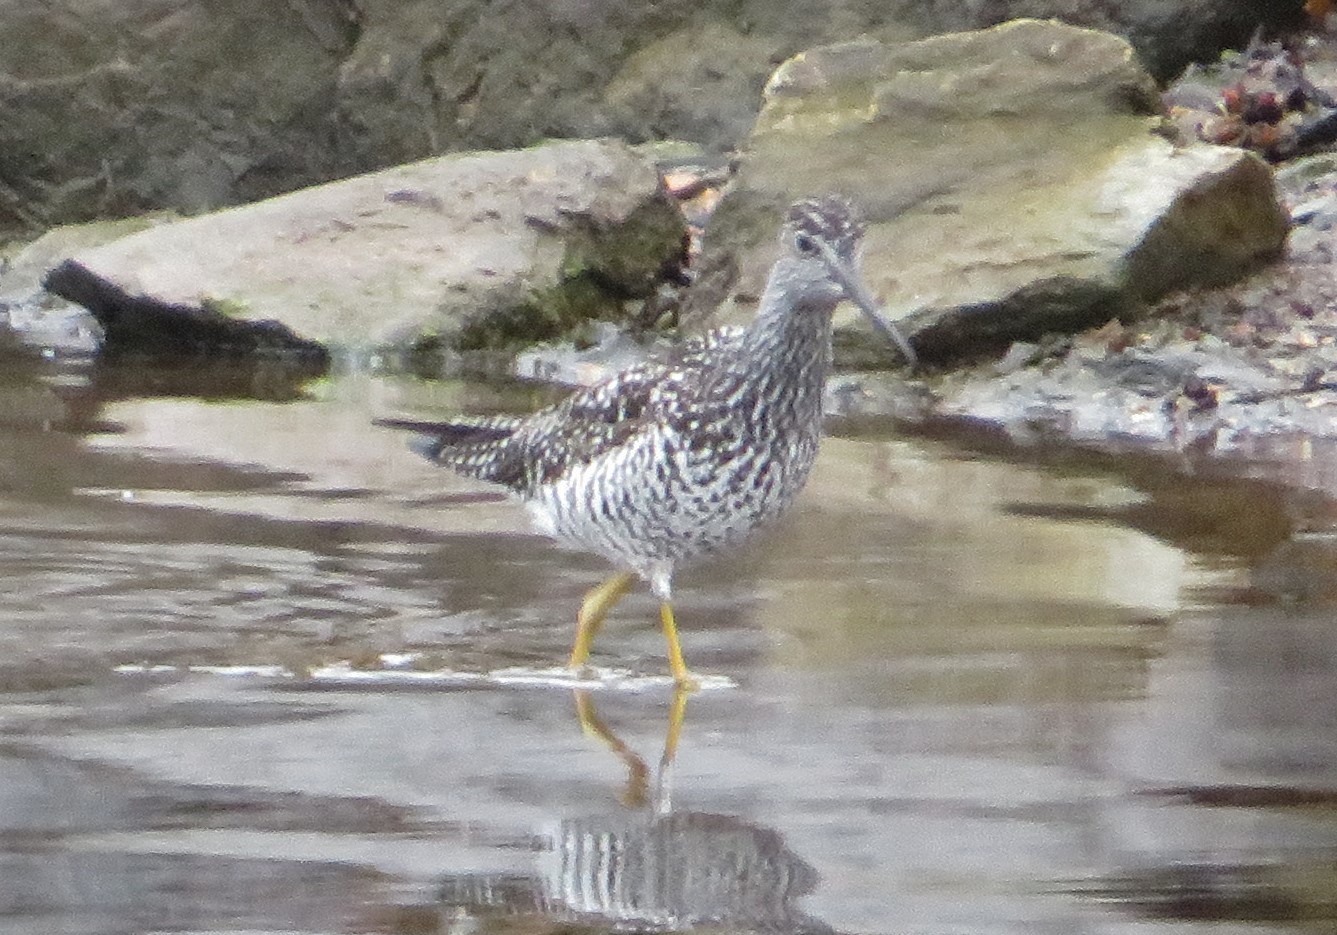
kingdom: Animalia
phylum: Chordata
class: Aves
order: Charadriiformes
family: Scolopacidae
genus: Tringa
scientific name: Tringa melanoleuca
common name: Greater yellowlegs
